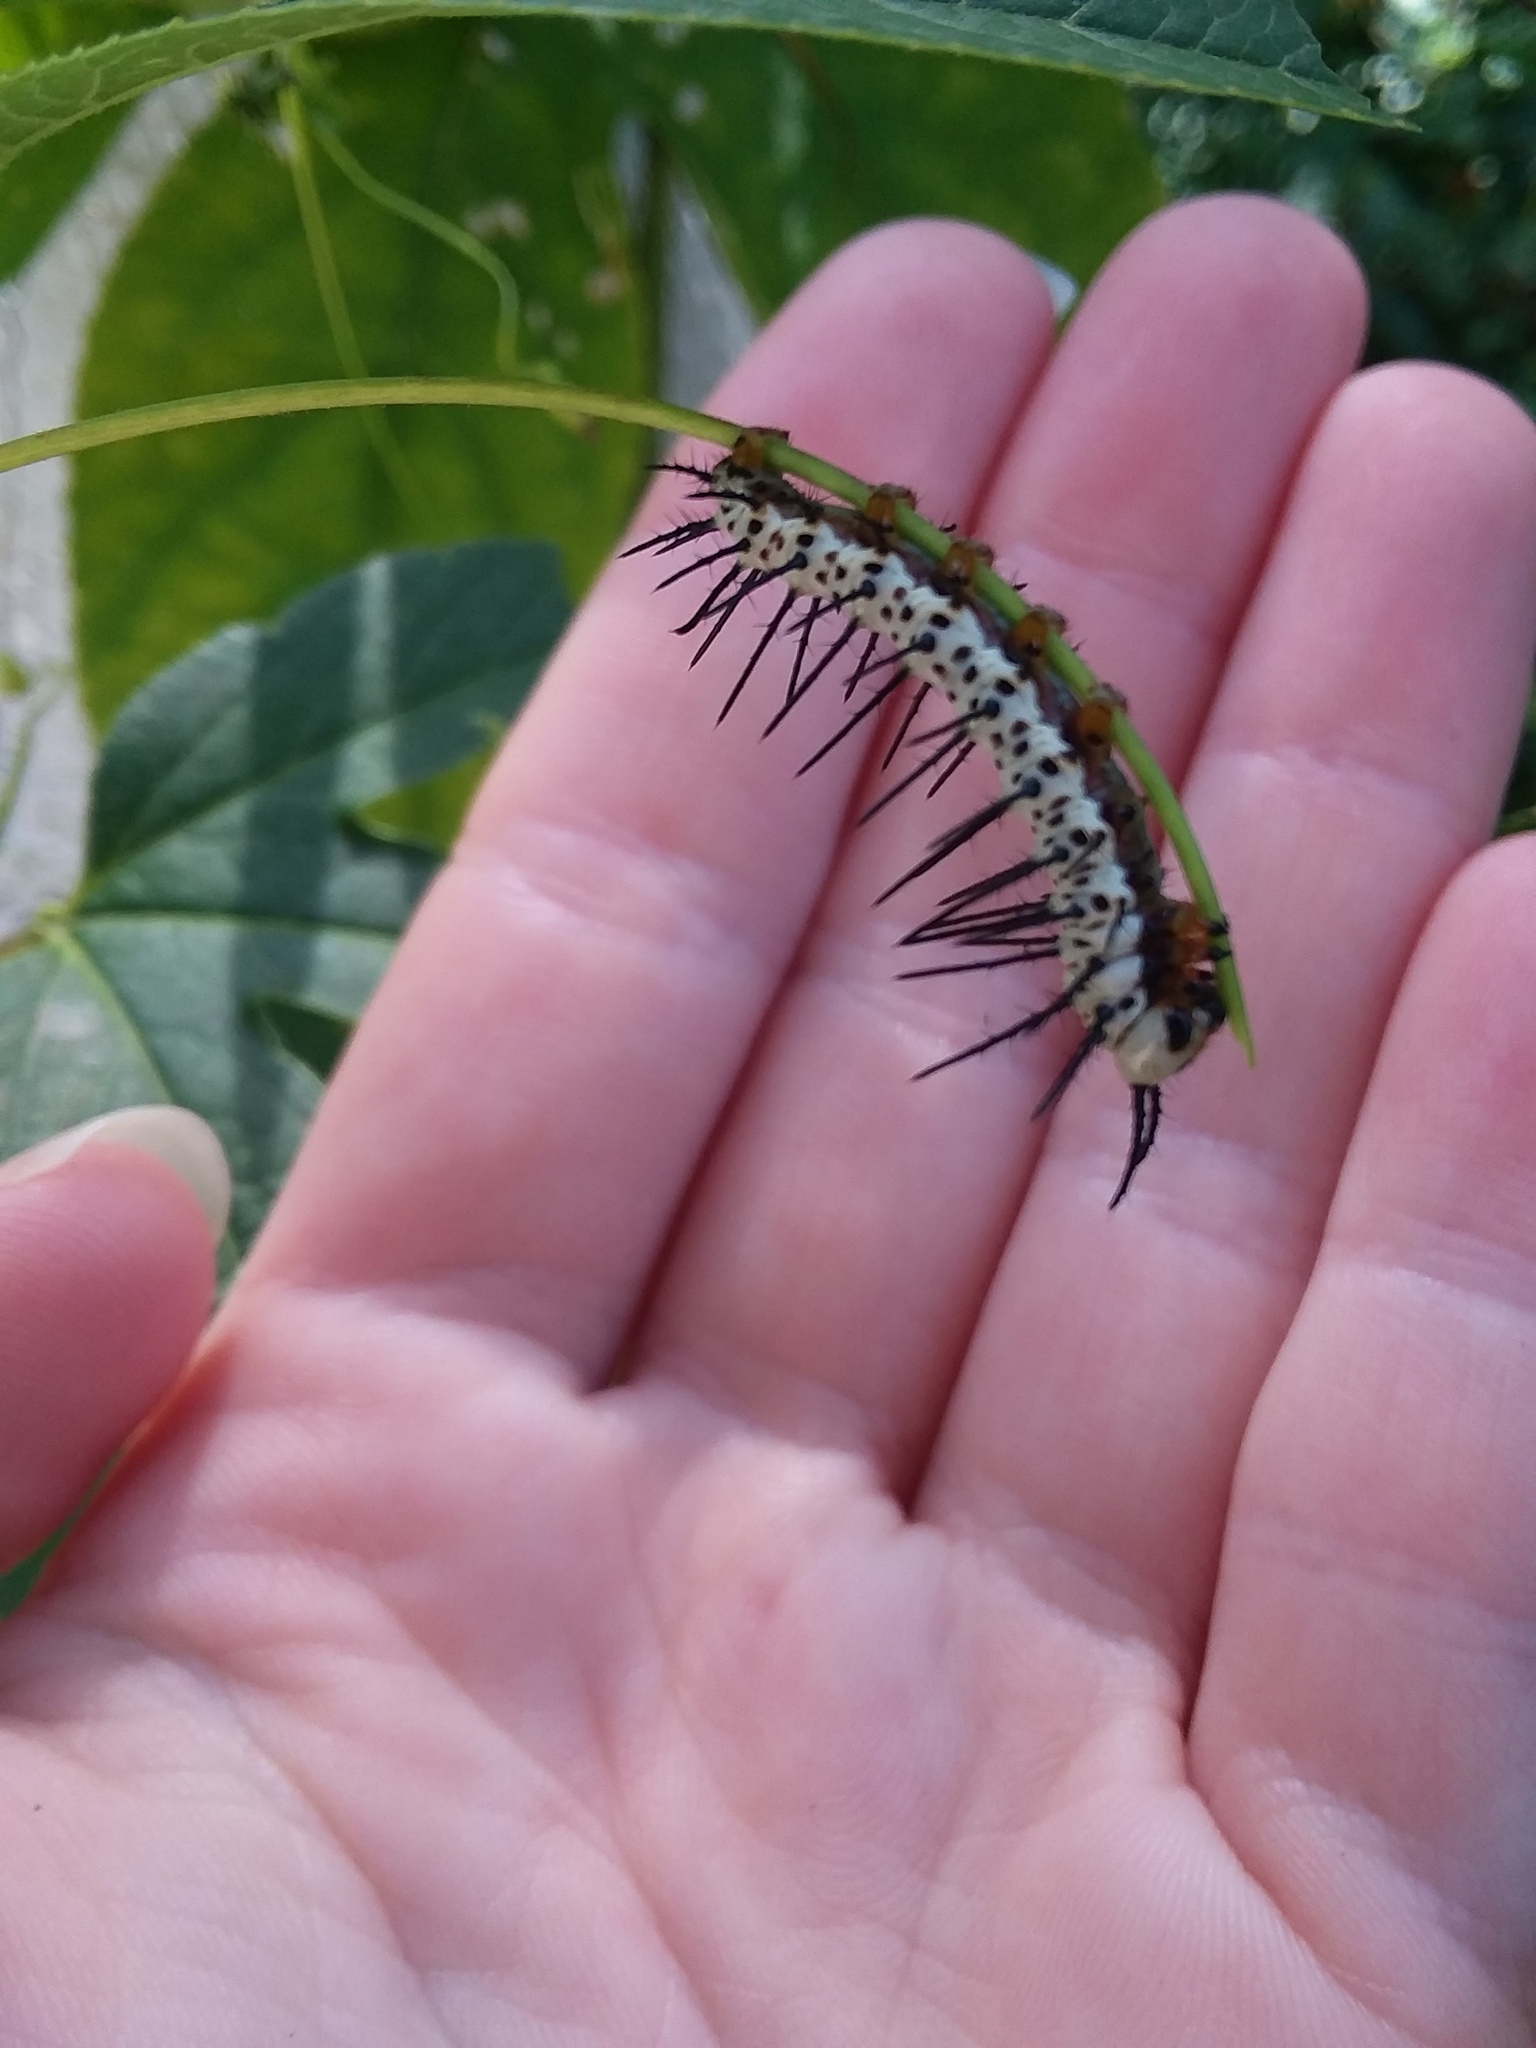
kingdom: Animalia
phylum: Arthropoda
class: Insecta
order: Lepidoptera
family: Nymphalidae
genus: Heliconius
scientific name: Heliconius charithonia
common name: Zebra long wing
